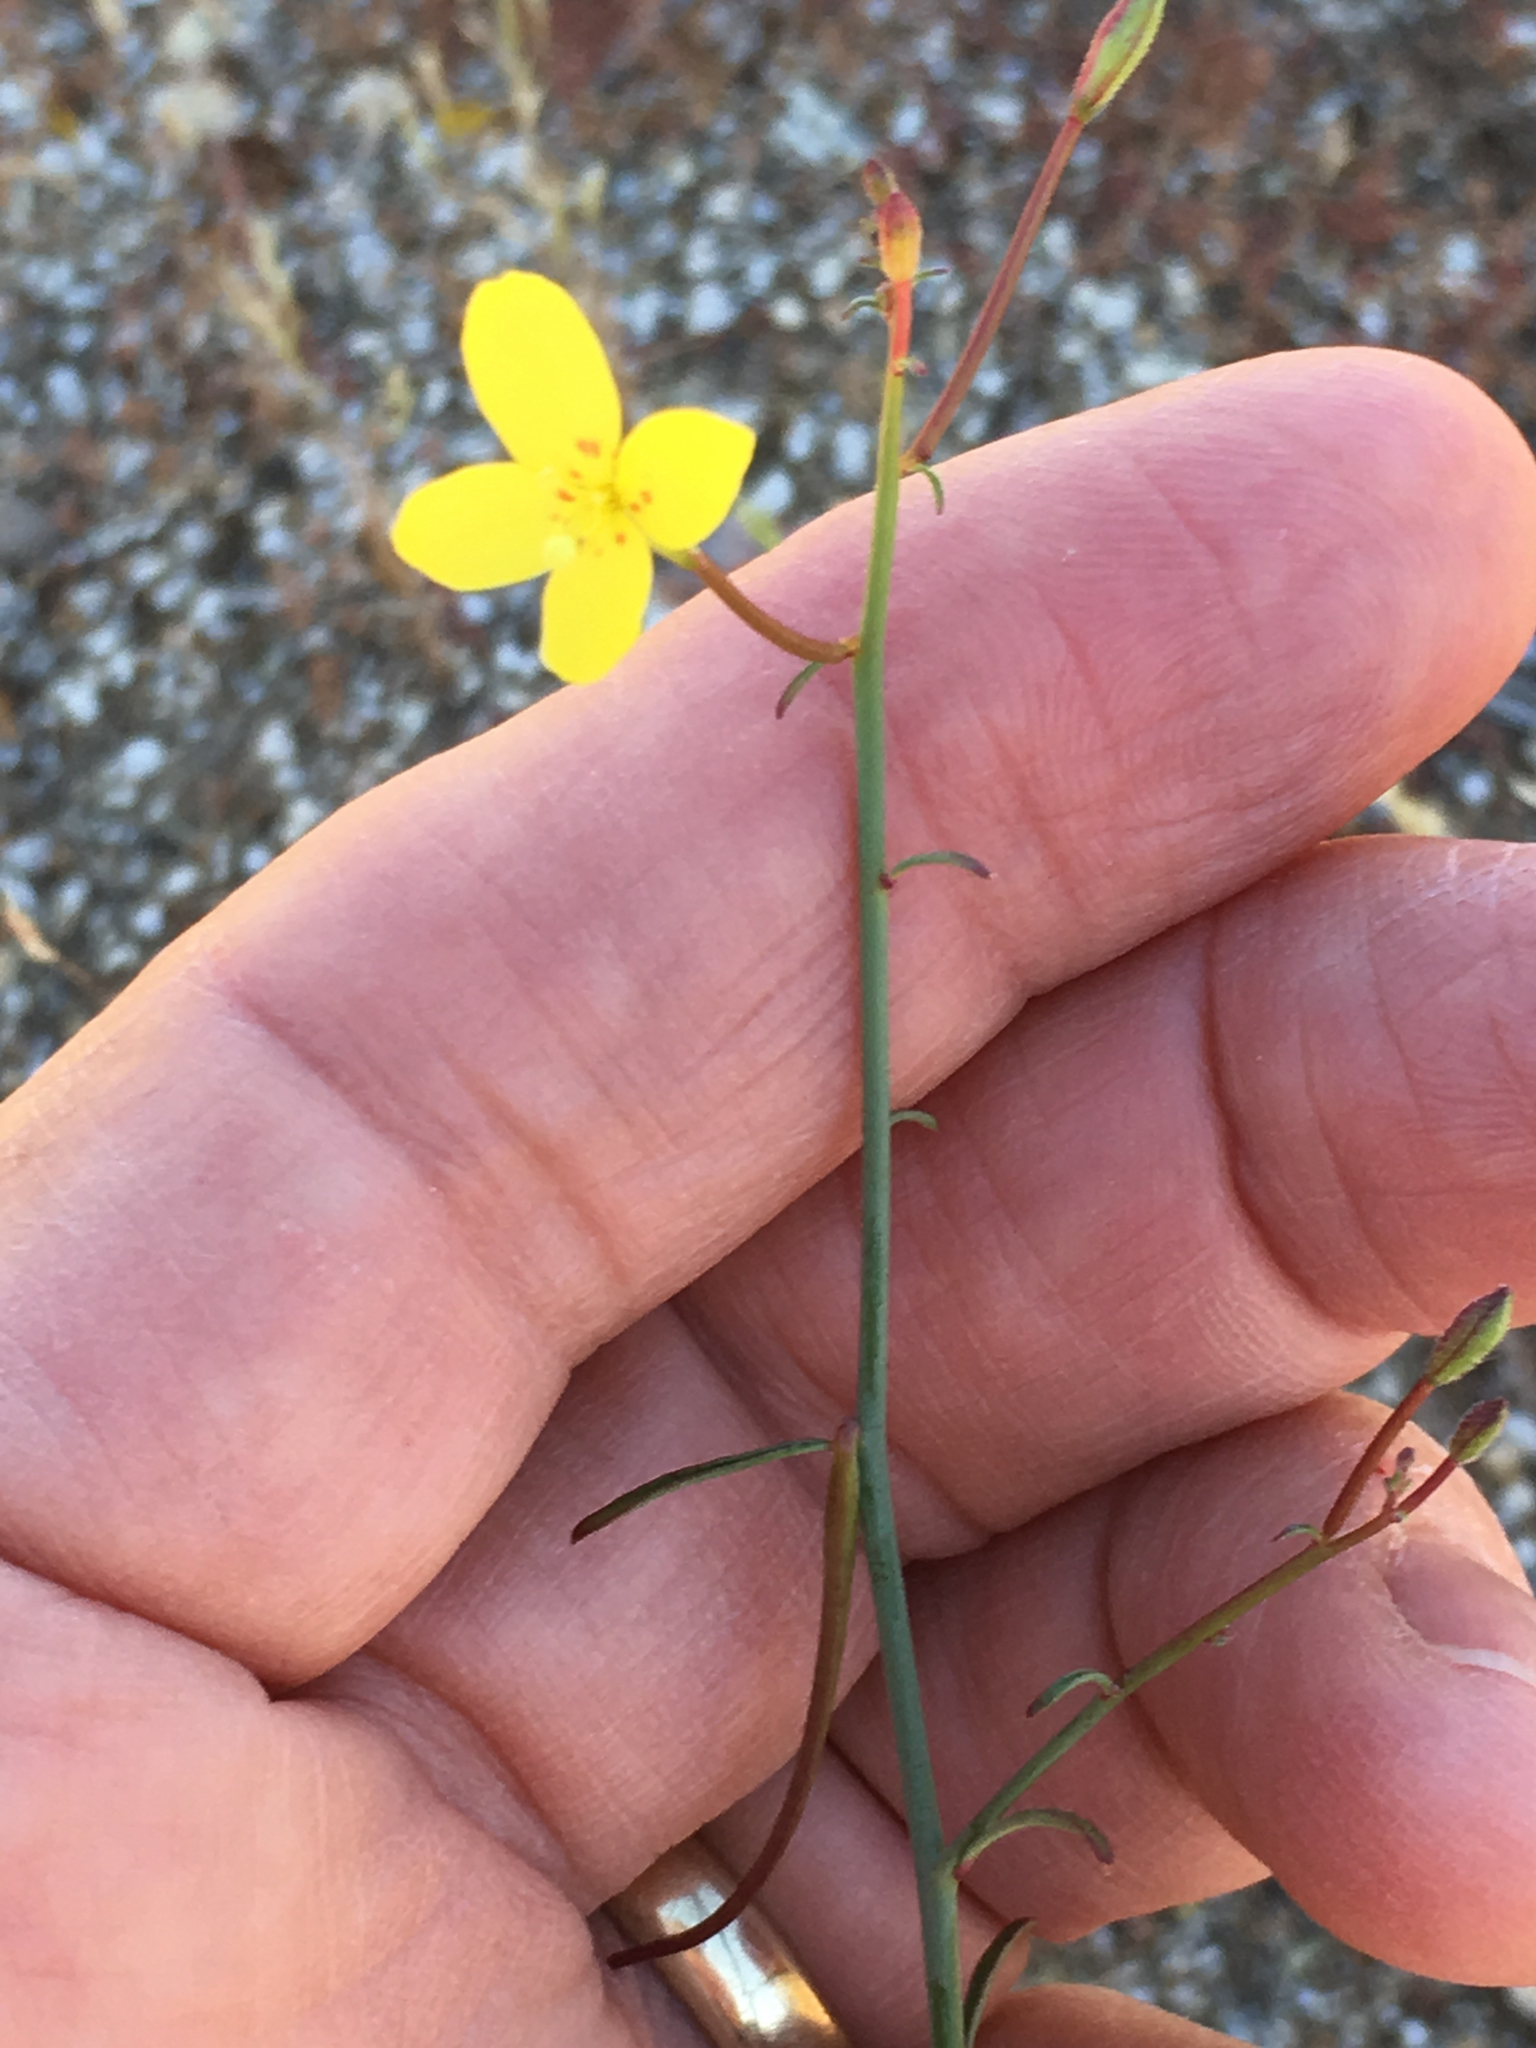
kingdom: Plantae
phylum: Tracheophyta
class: Magnoliopsida
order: Myrtales
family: Onagraceae
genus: Eulobus
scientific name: Eulobus californicus
